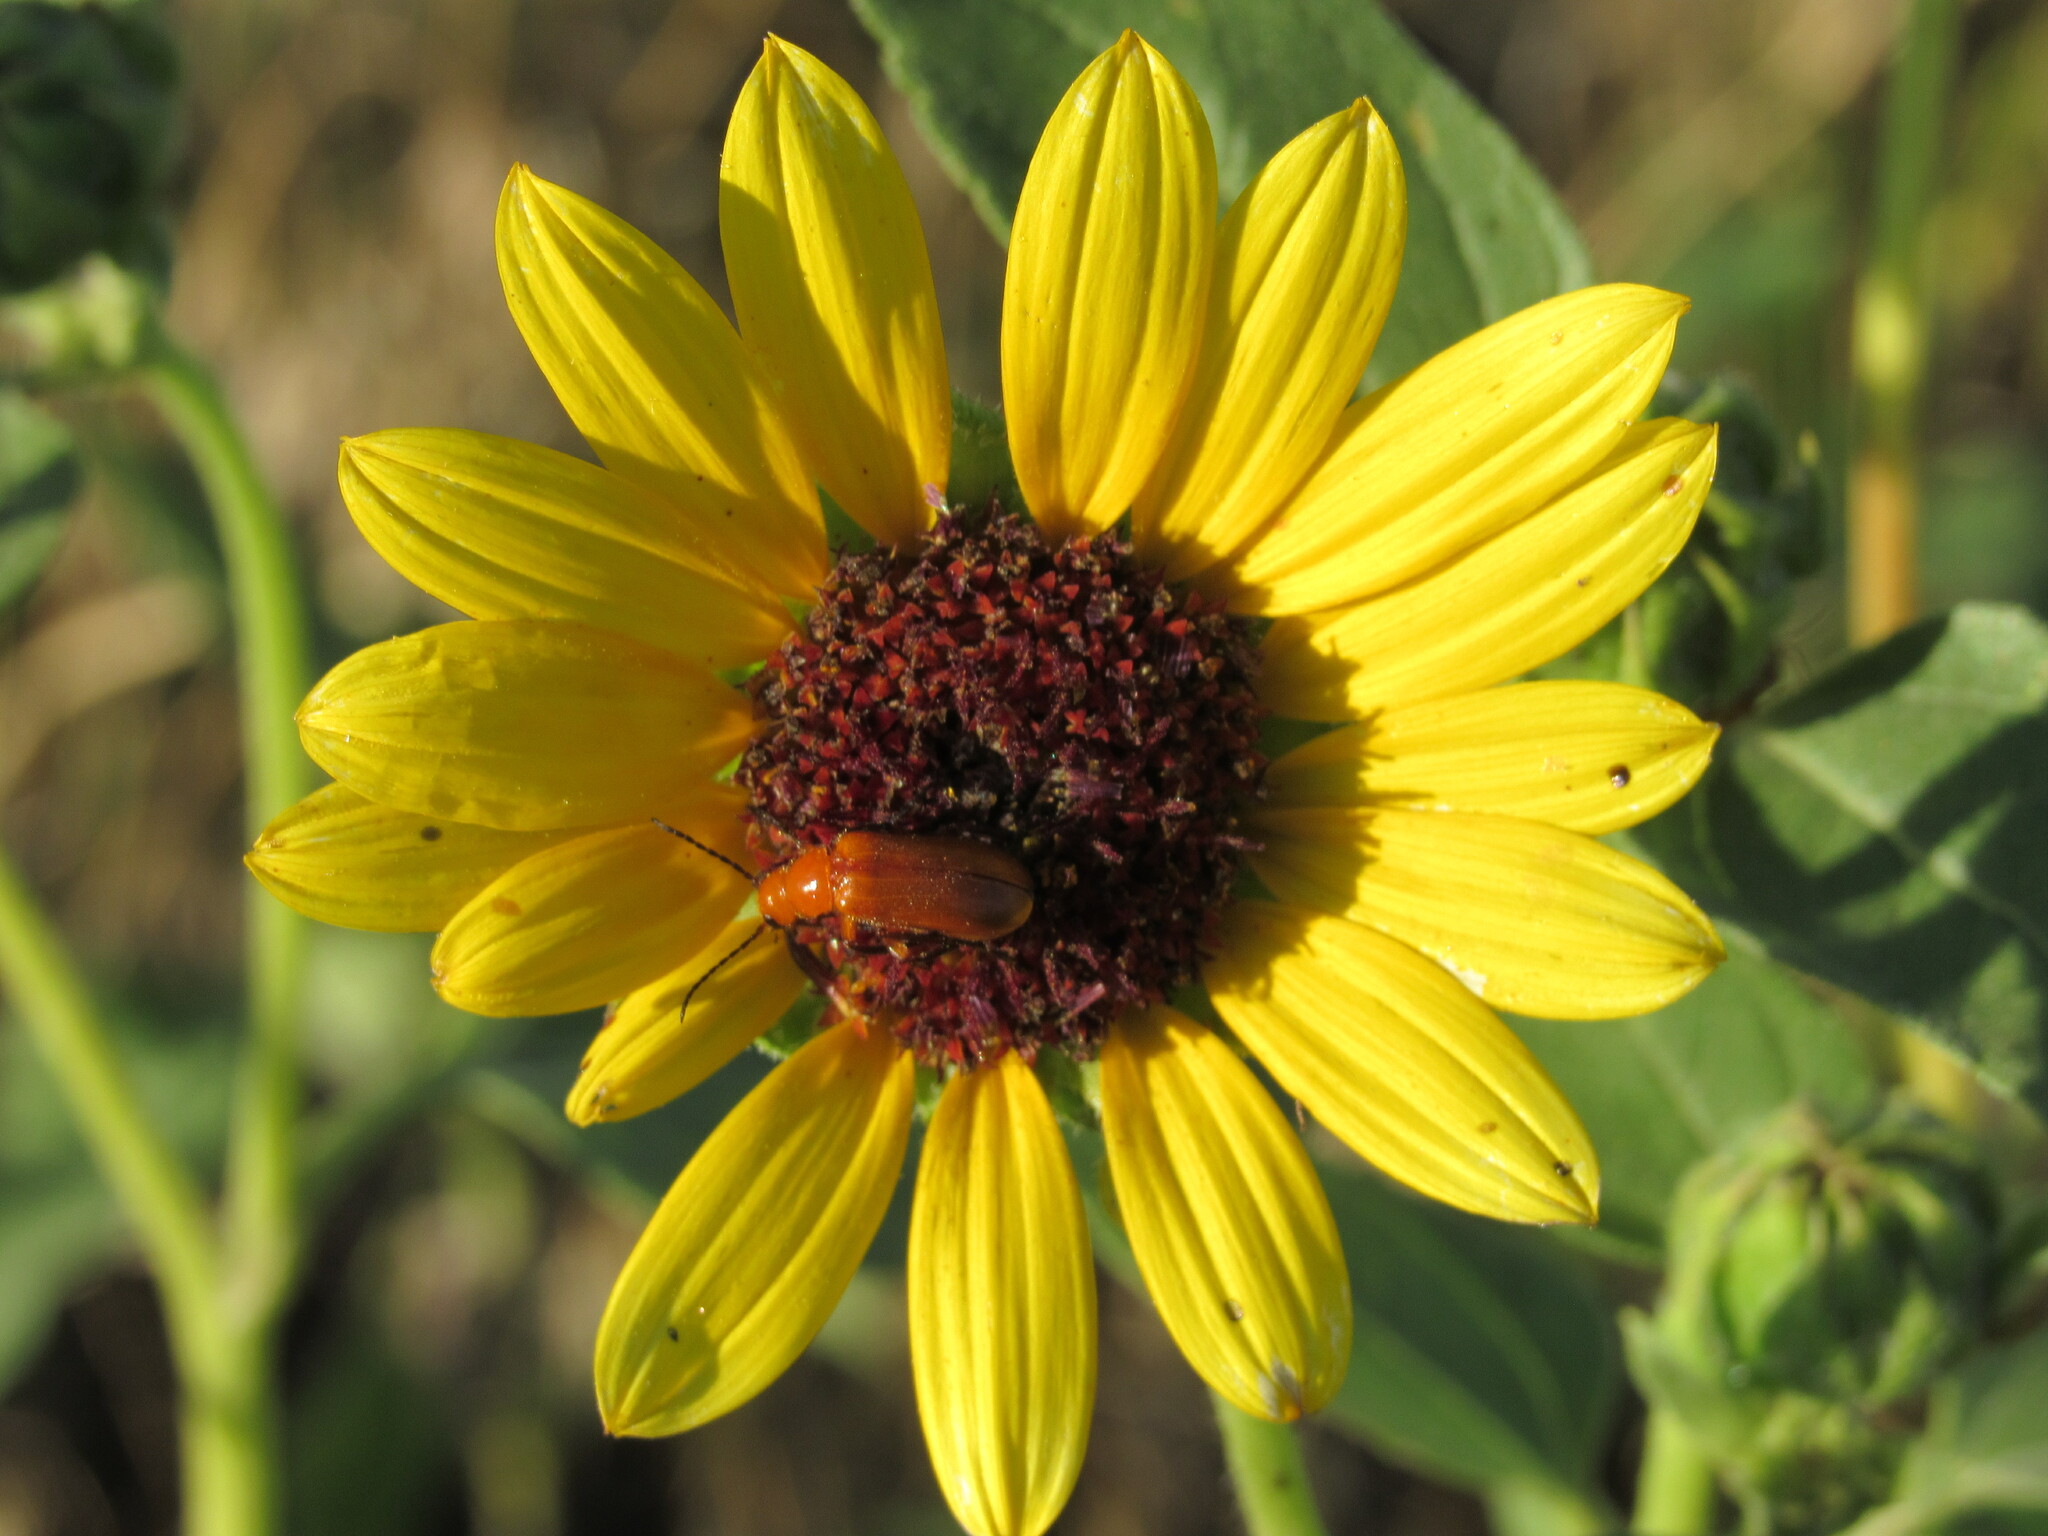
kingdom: Plantae
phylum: Tracheophyta
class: Magnoliopsida
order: Asterales
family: Asteraceae
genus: Helianthus
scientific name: Helianthus annuus
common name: Sunflower
